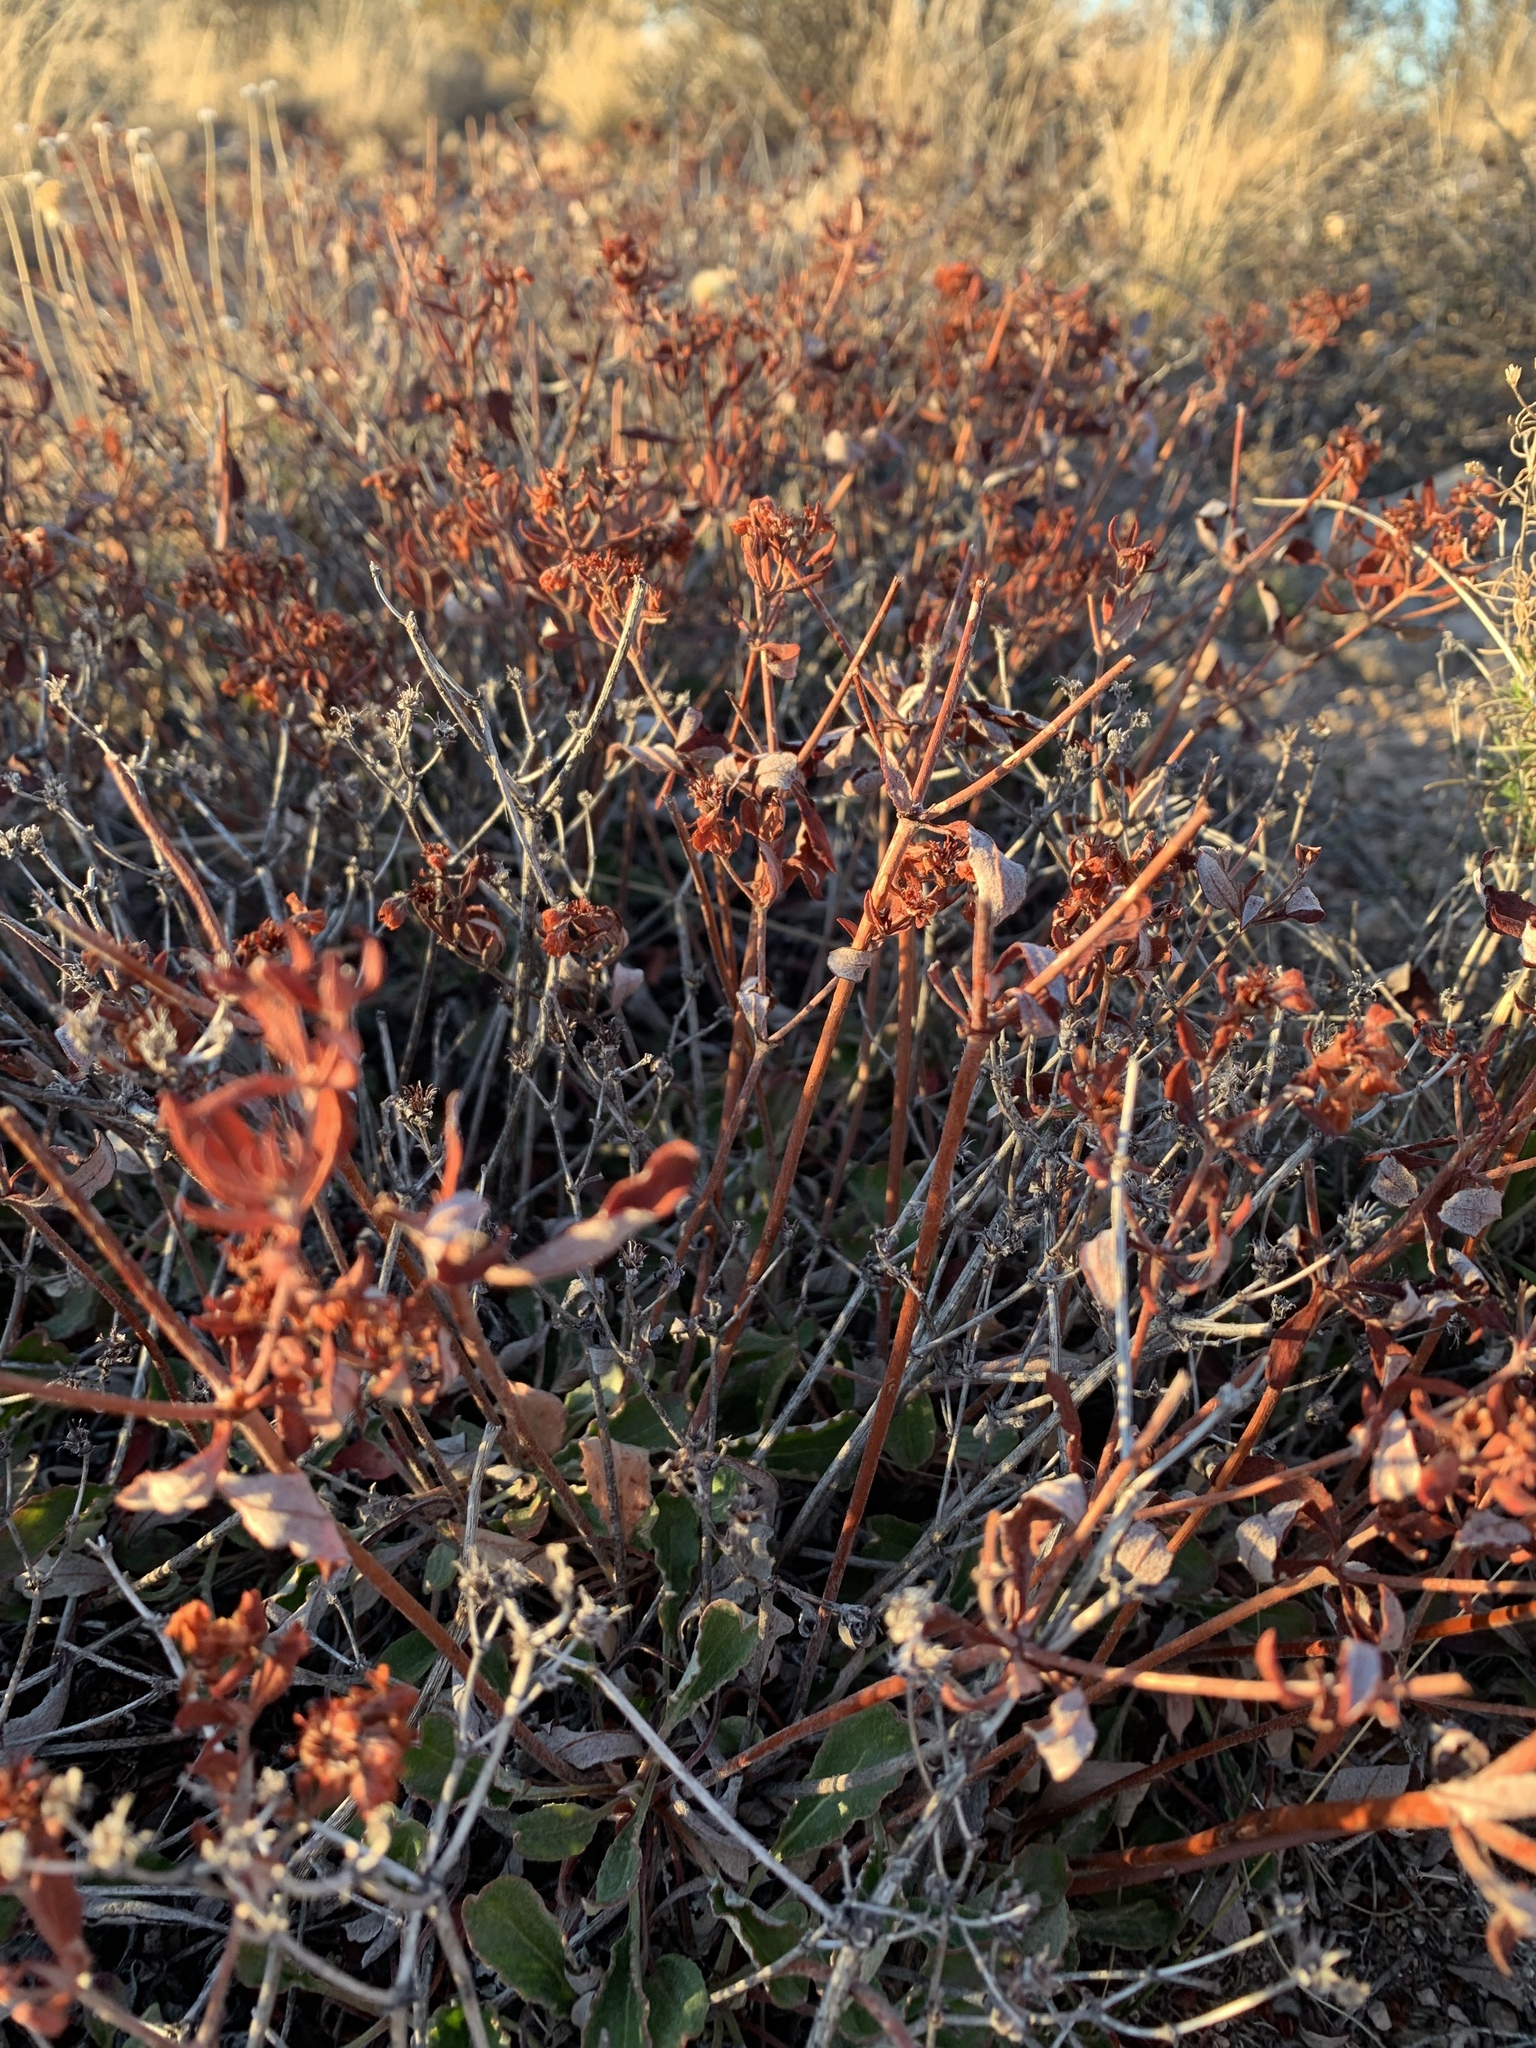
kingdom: Plantae
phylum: Tracheophyta
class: Magnoliopsida
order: Caryophyllales
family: Polygonaceae
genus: Eriogonum
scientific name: Eriogonum wootonii
